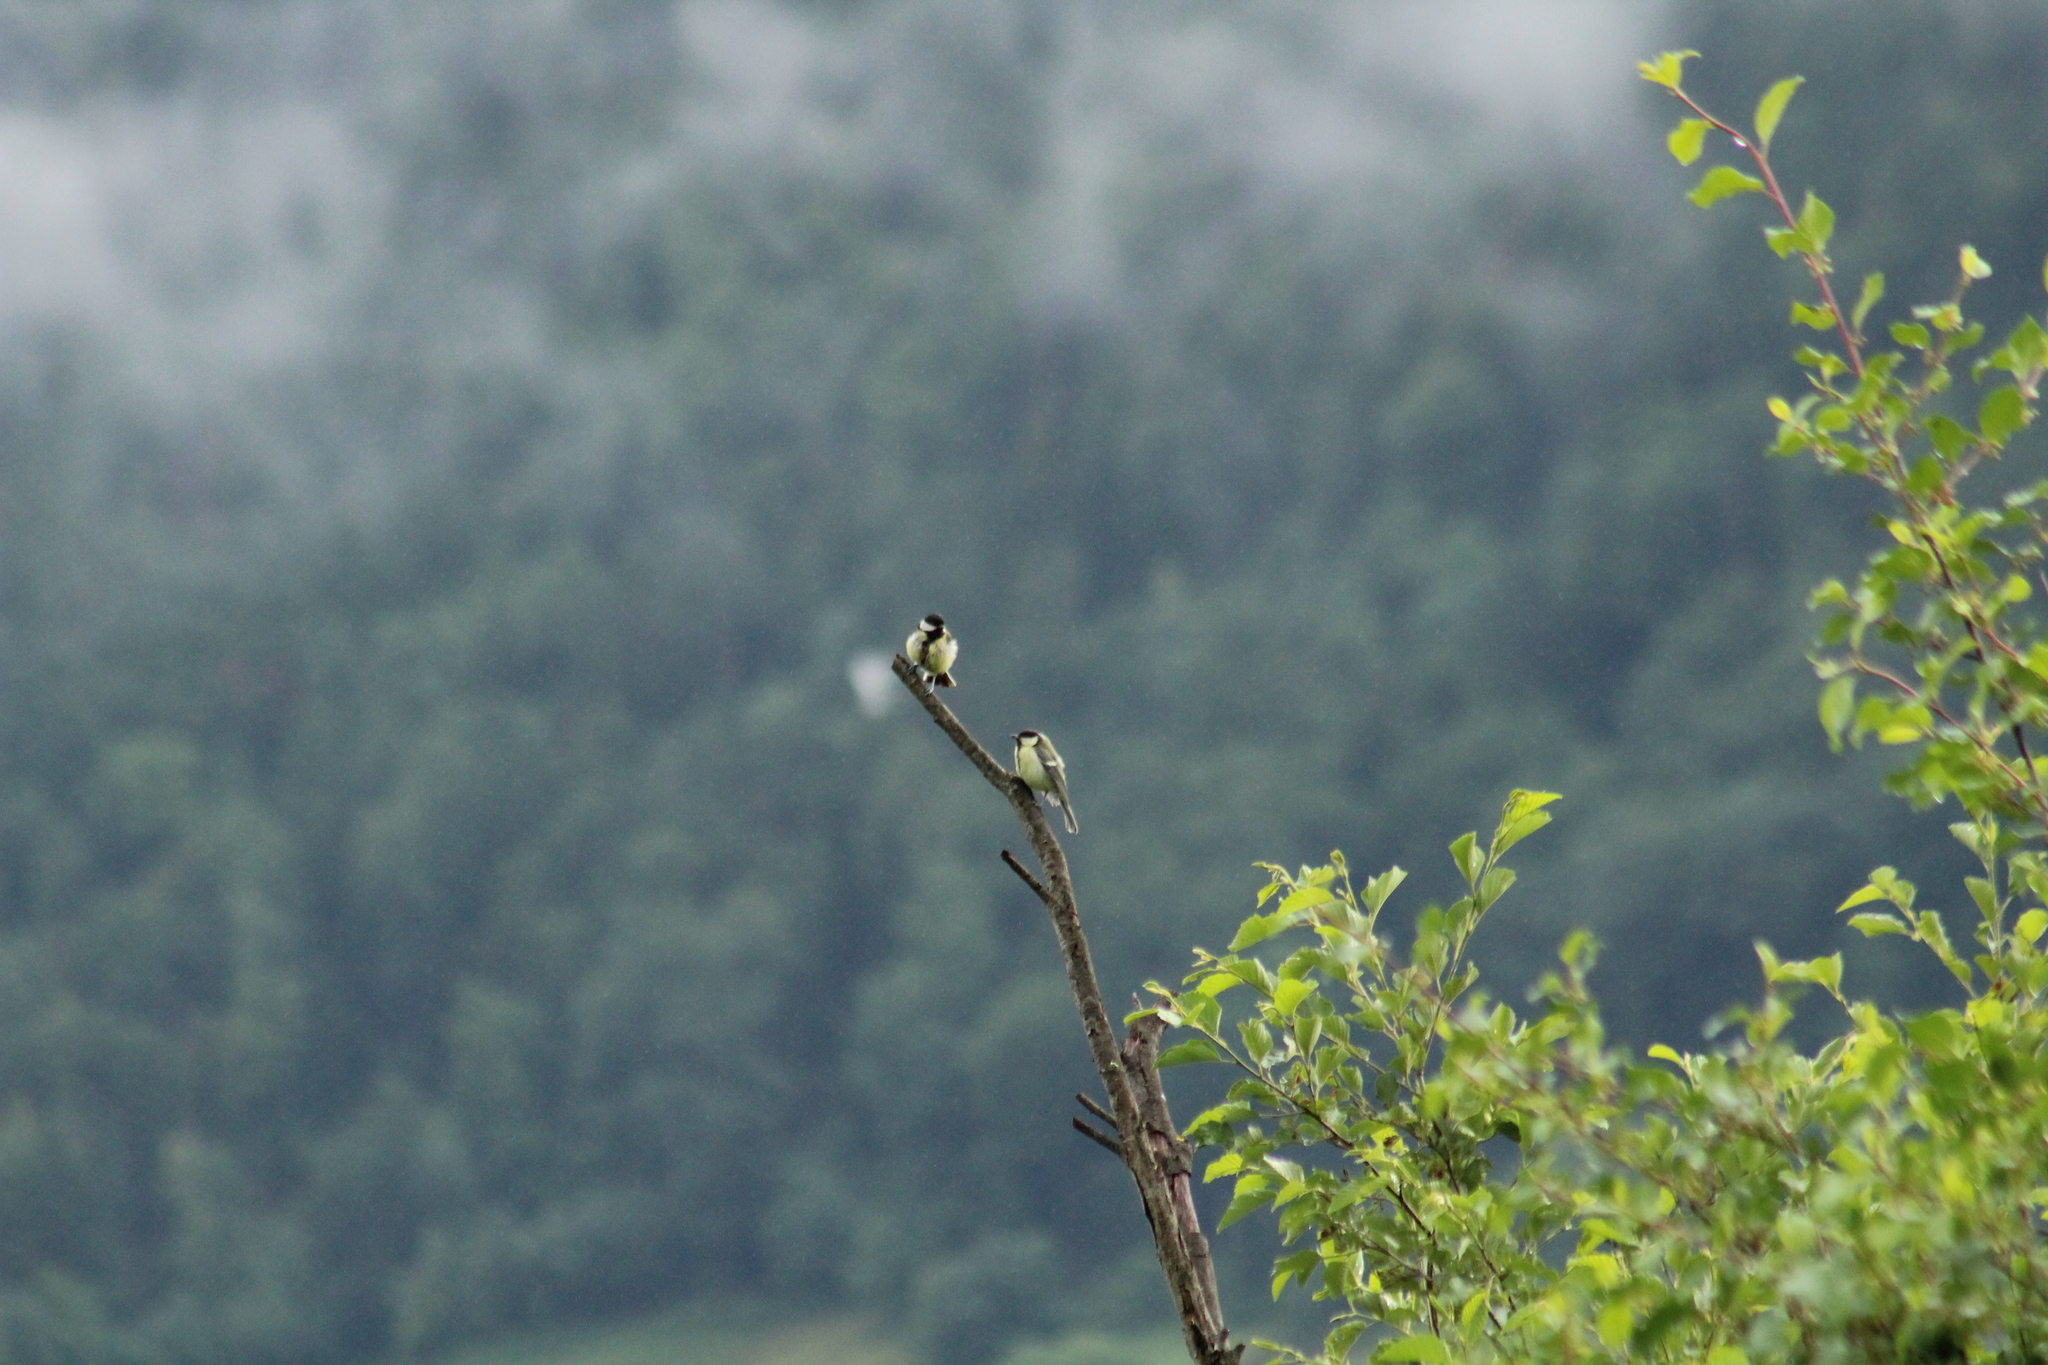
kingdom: Animalia
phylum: Chordata
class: Aves
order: Passeriformes
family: Paridae
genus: Parus
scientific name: Parus major
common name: Great tit
